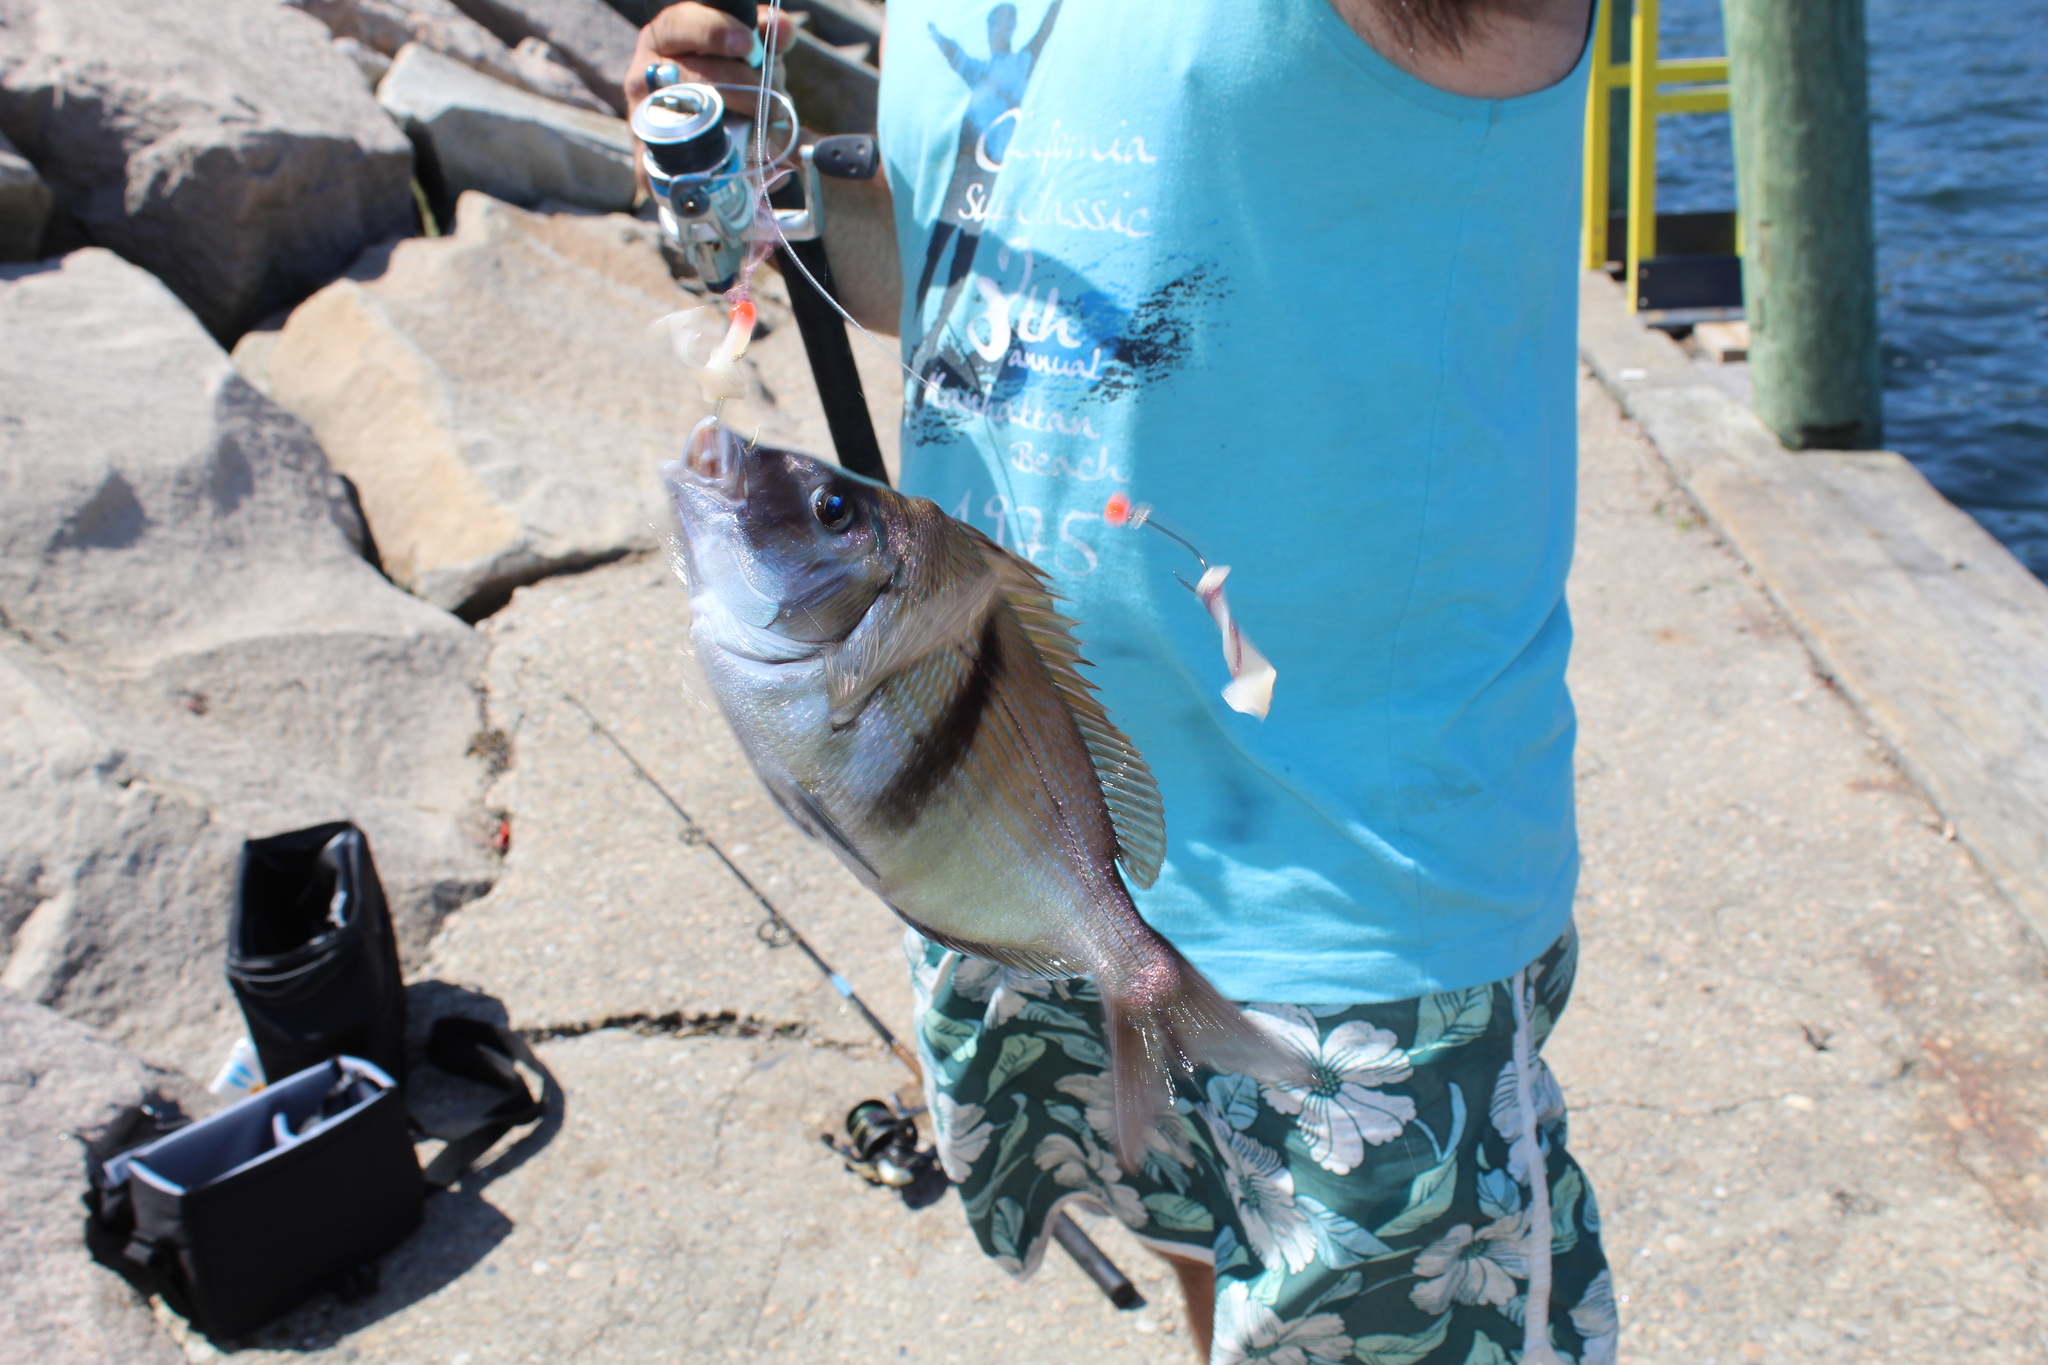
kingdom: Animalia
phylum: Chordata
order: Perciformes
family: Sparidae
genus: Stenotomus
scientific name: Stenotomus chrysops
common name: Scup
